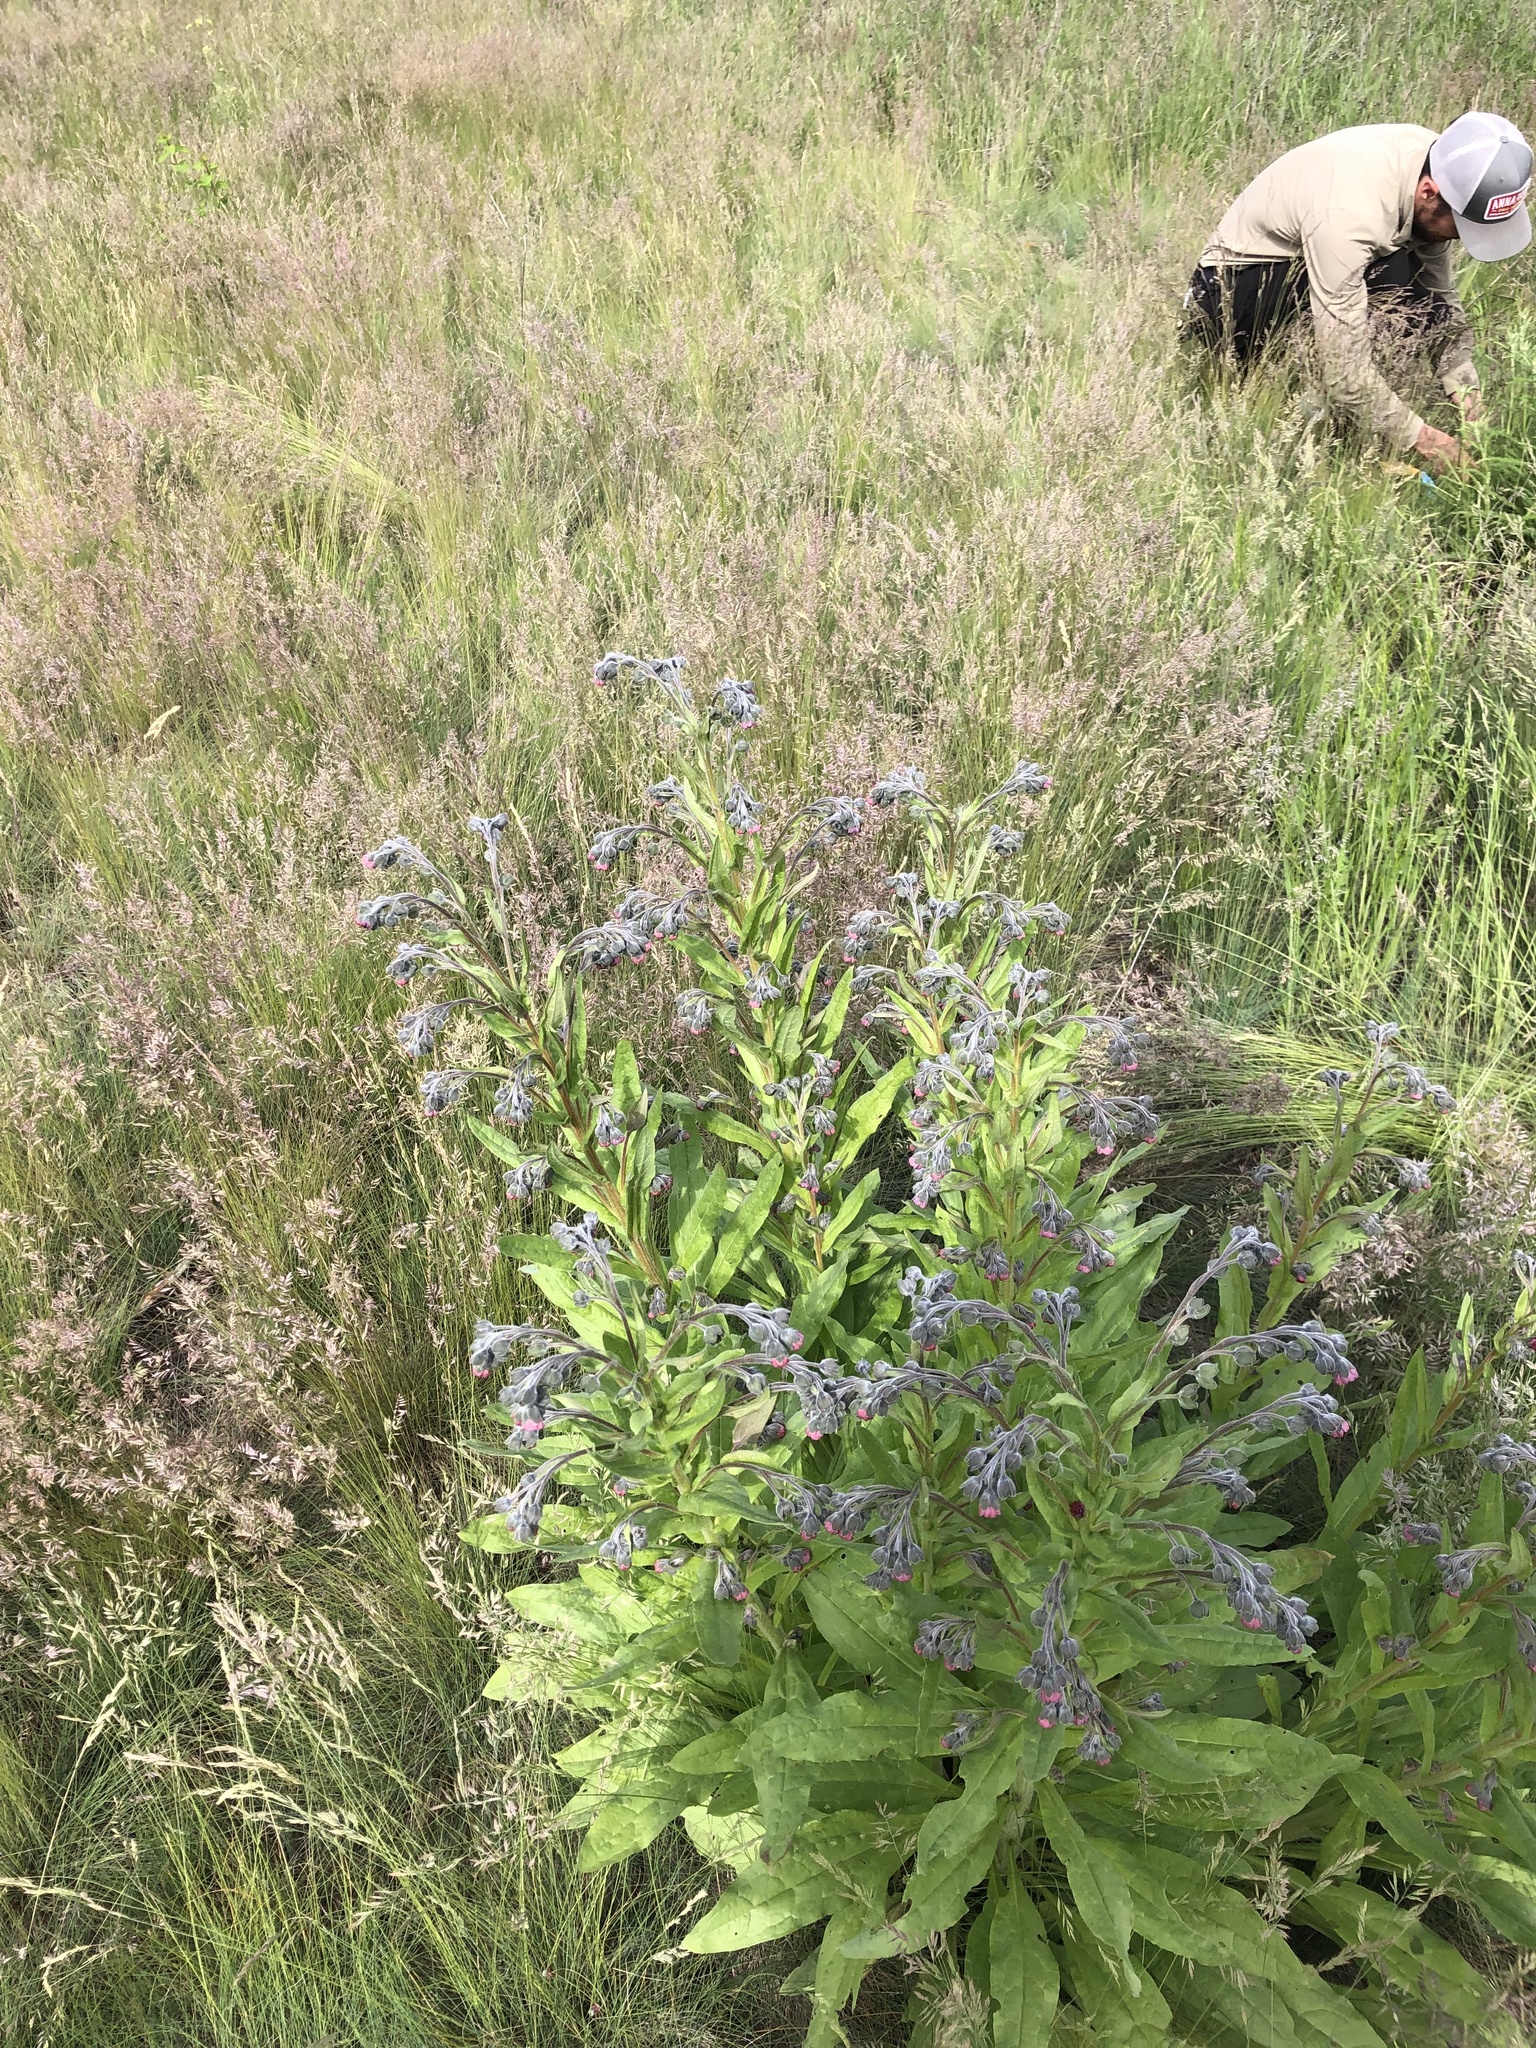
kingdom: Plantae
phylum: Tracheophyta
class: Magnoliopsida
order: Boraginales
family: Boraginaceae
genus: Cynoglossum
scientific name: Cynoglossum officinale
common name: Hound's-tongue
